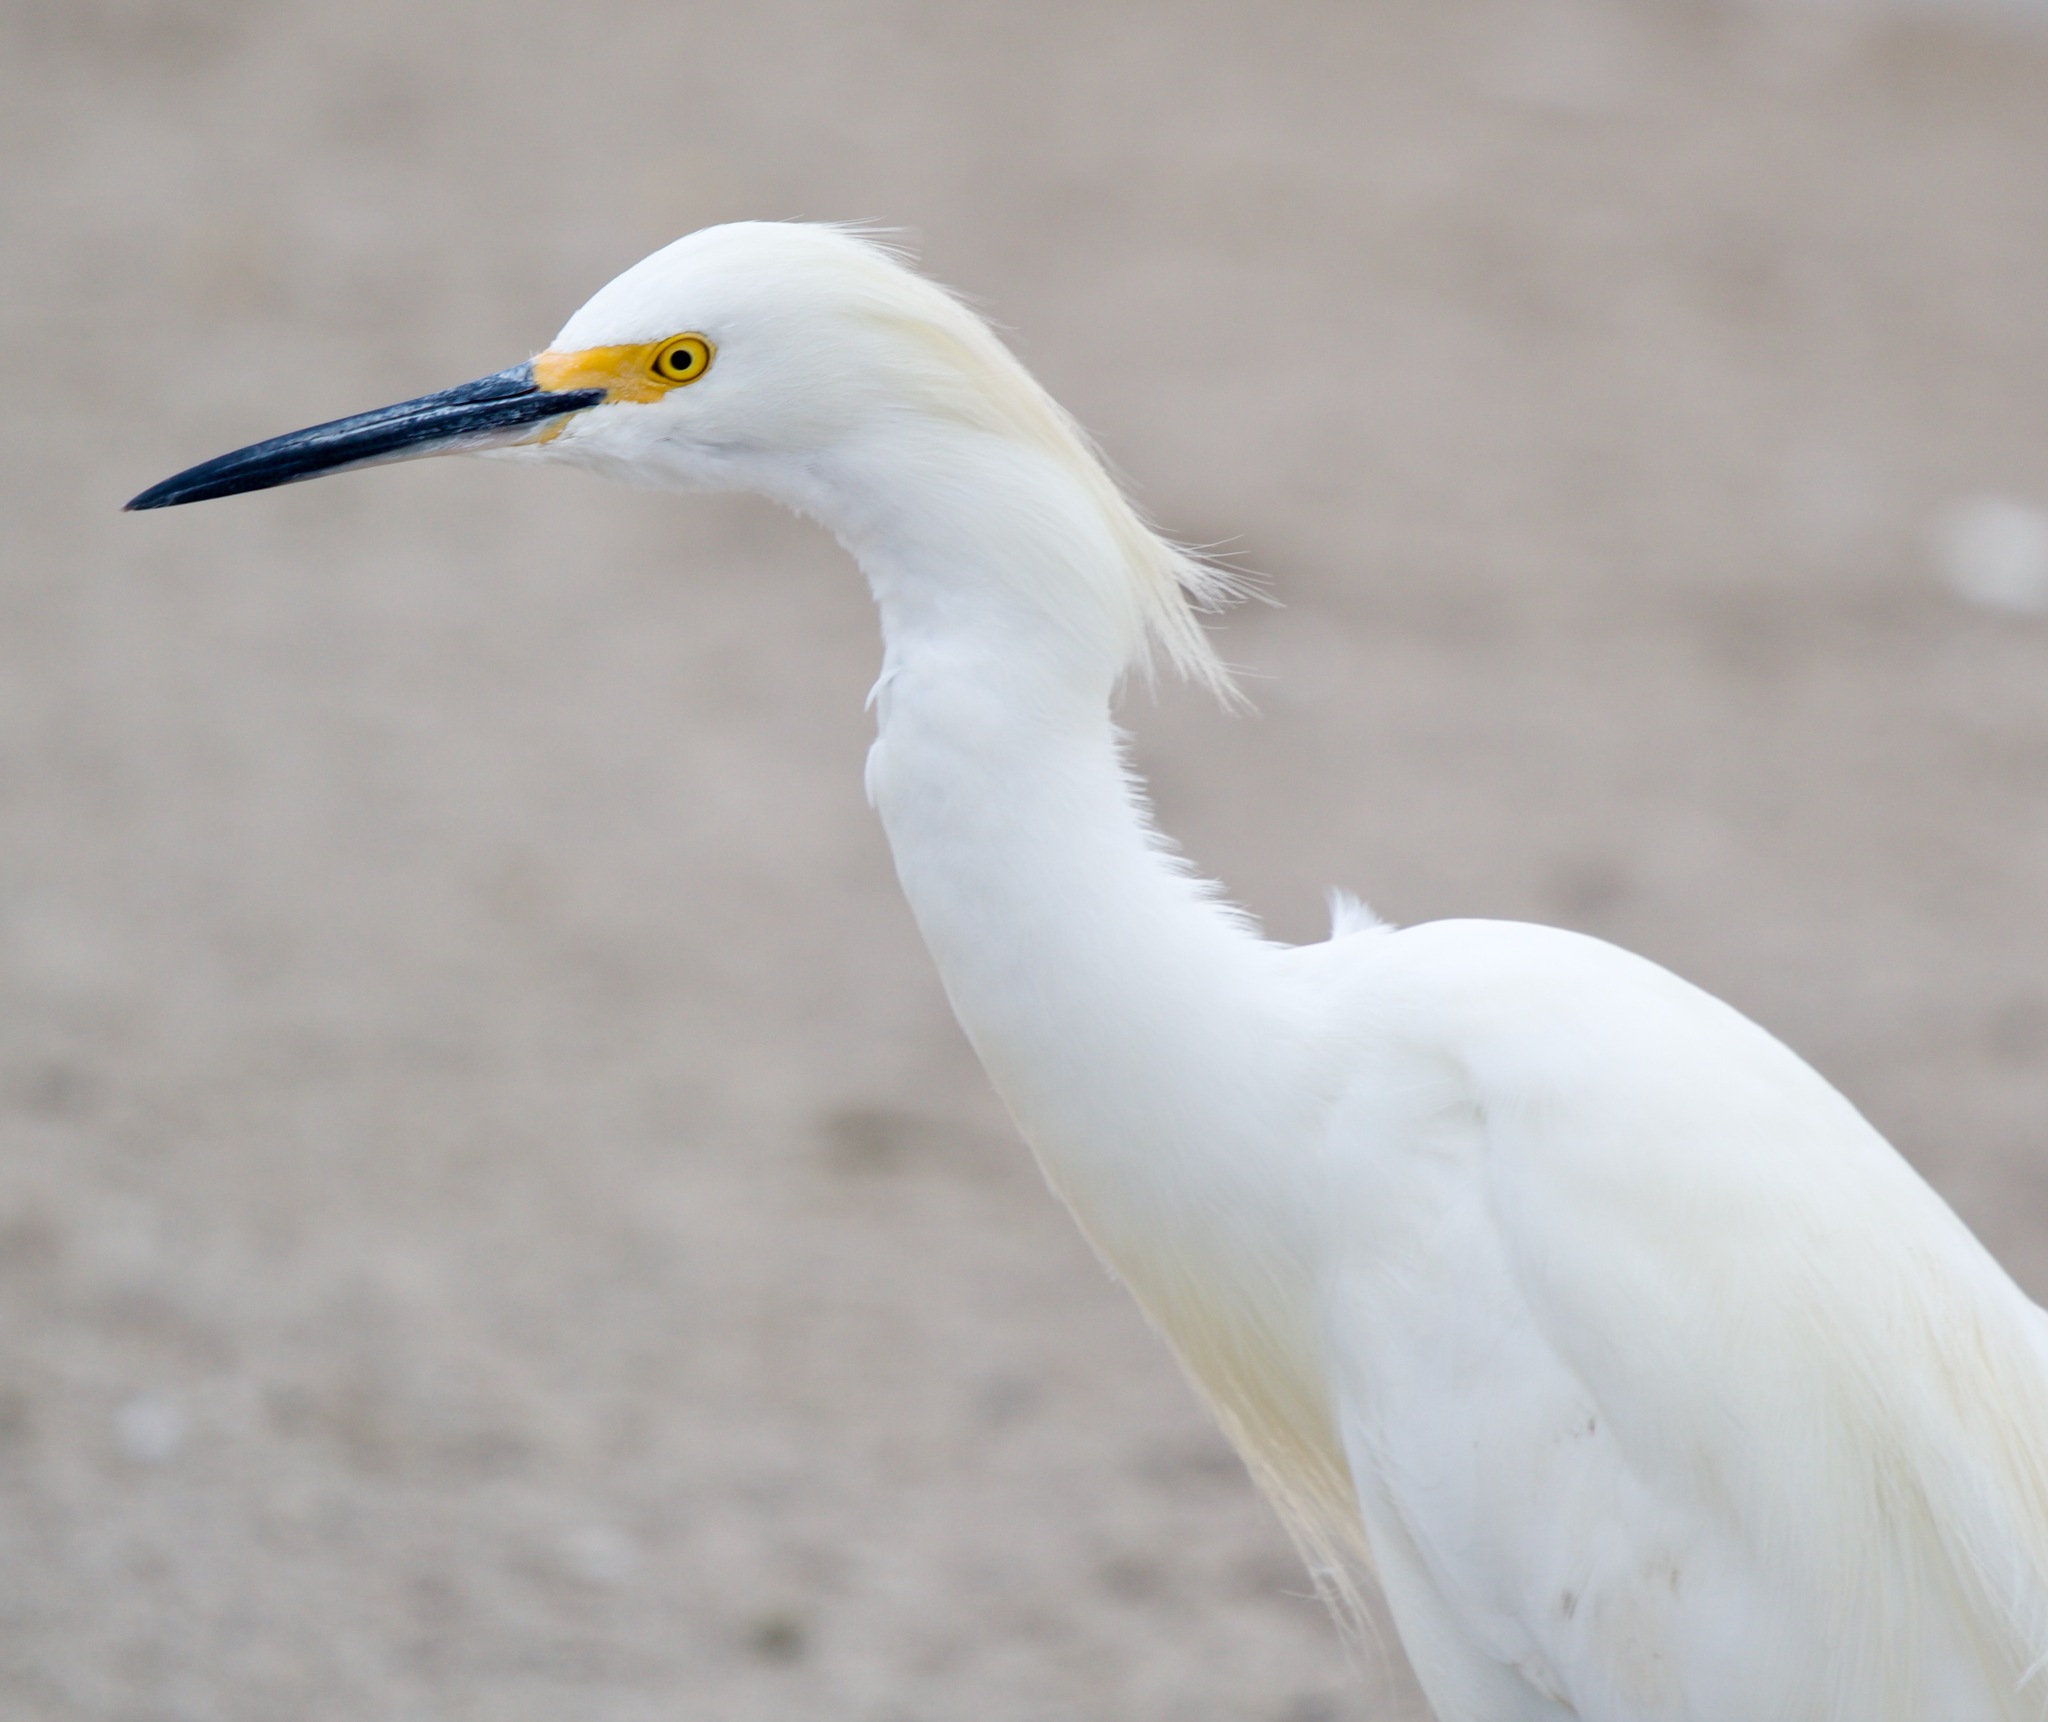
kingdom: Animalia
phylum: Chordata
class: Aves
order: Pelecaniformes
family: Ardeidae
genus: Egretta
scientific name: Egretta thula
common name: Snowy egret
